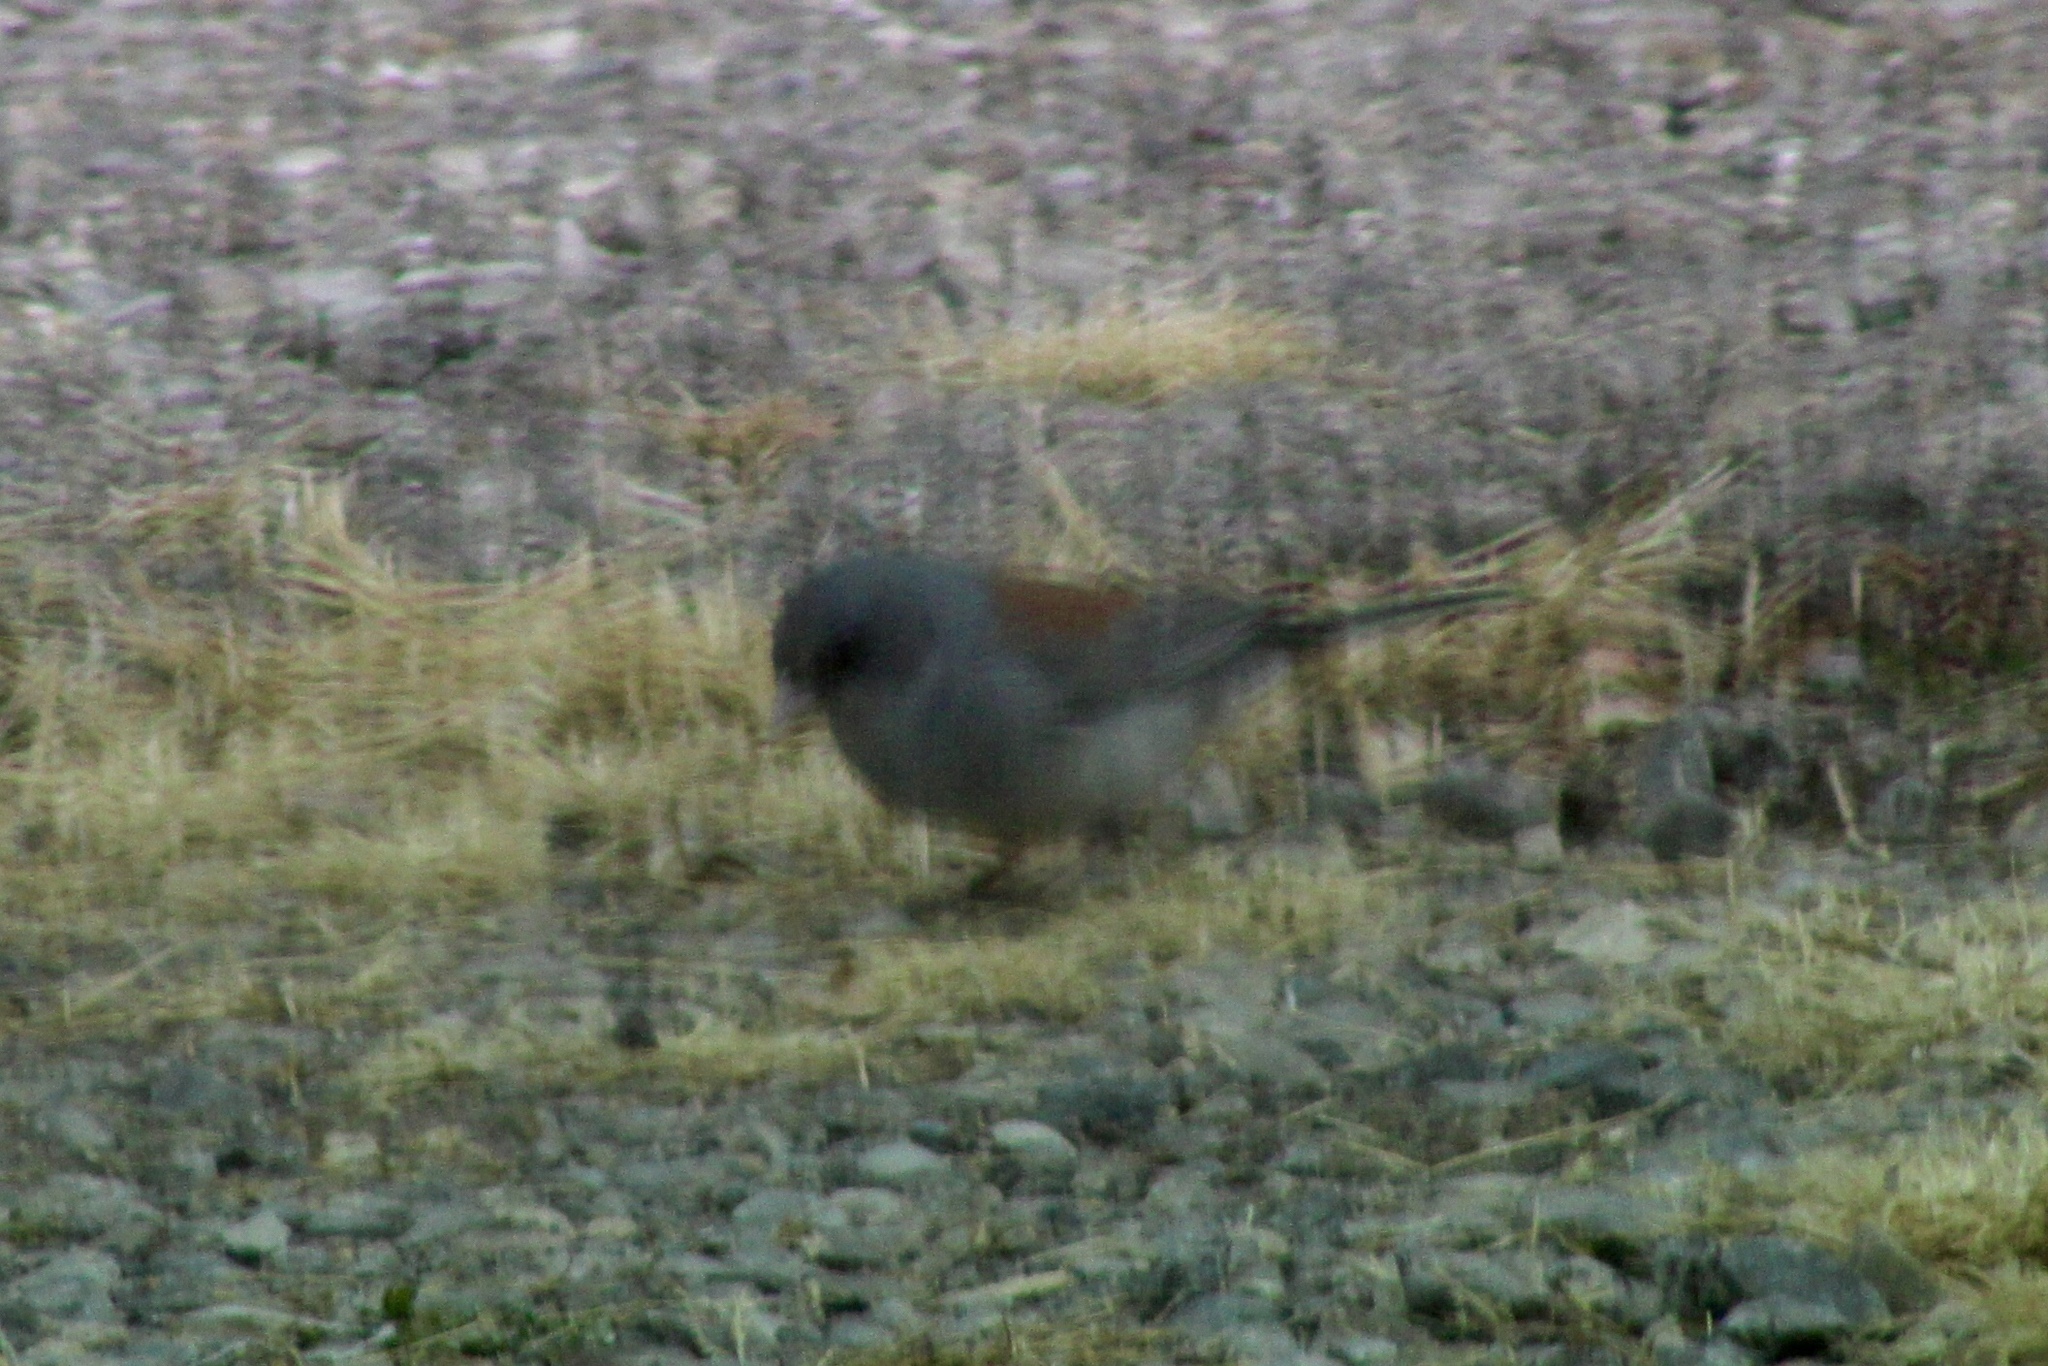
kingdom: Animalia
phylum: Chordata
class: Aves
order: Passeriformes
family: Passerellidae
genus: Junco
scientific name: Junco hyemalis
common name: Dark-eyed junco
